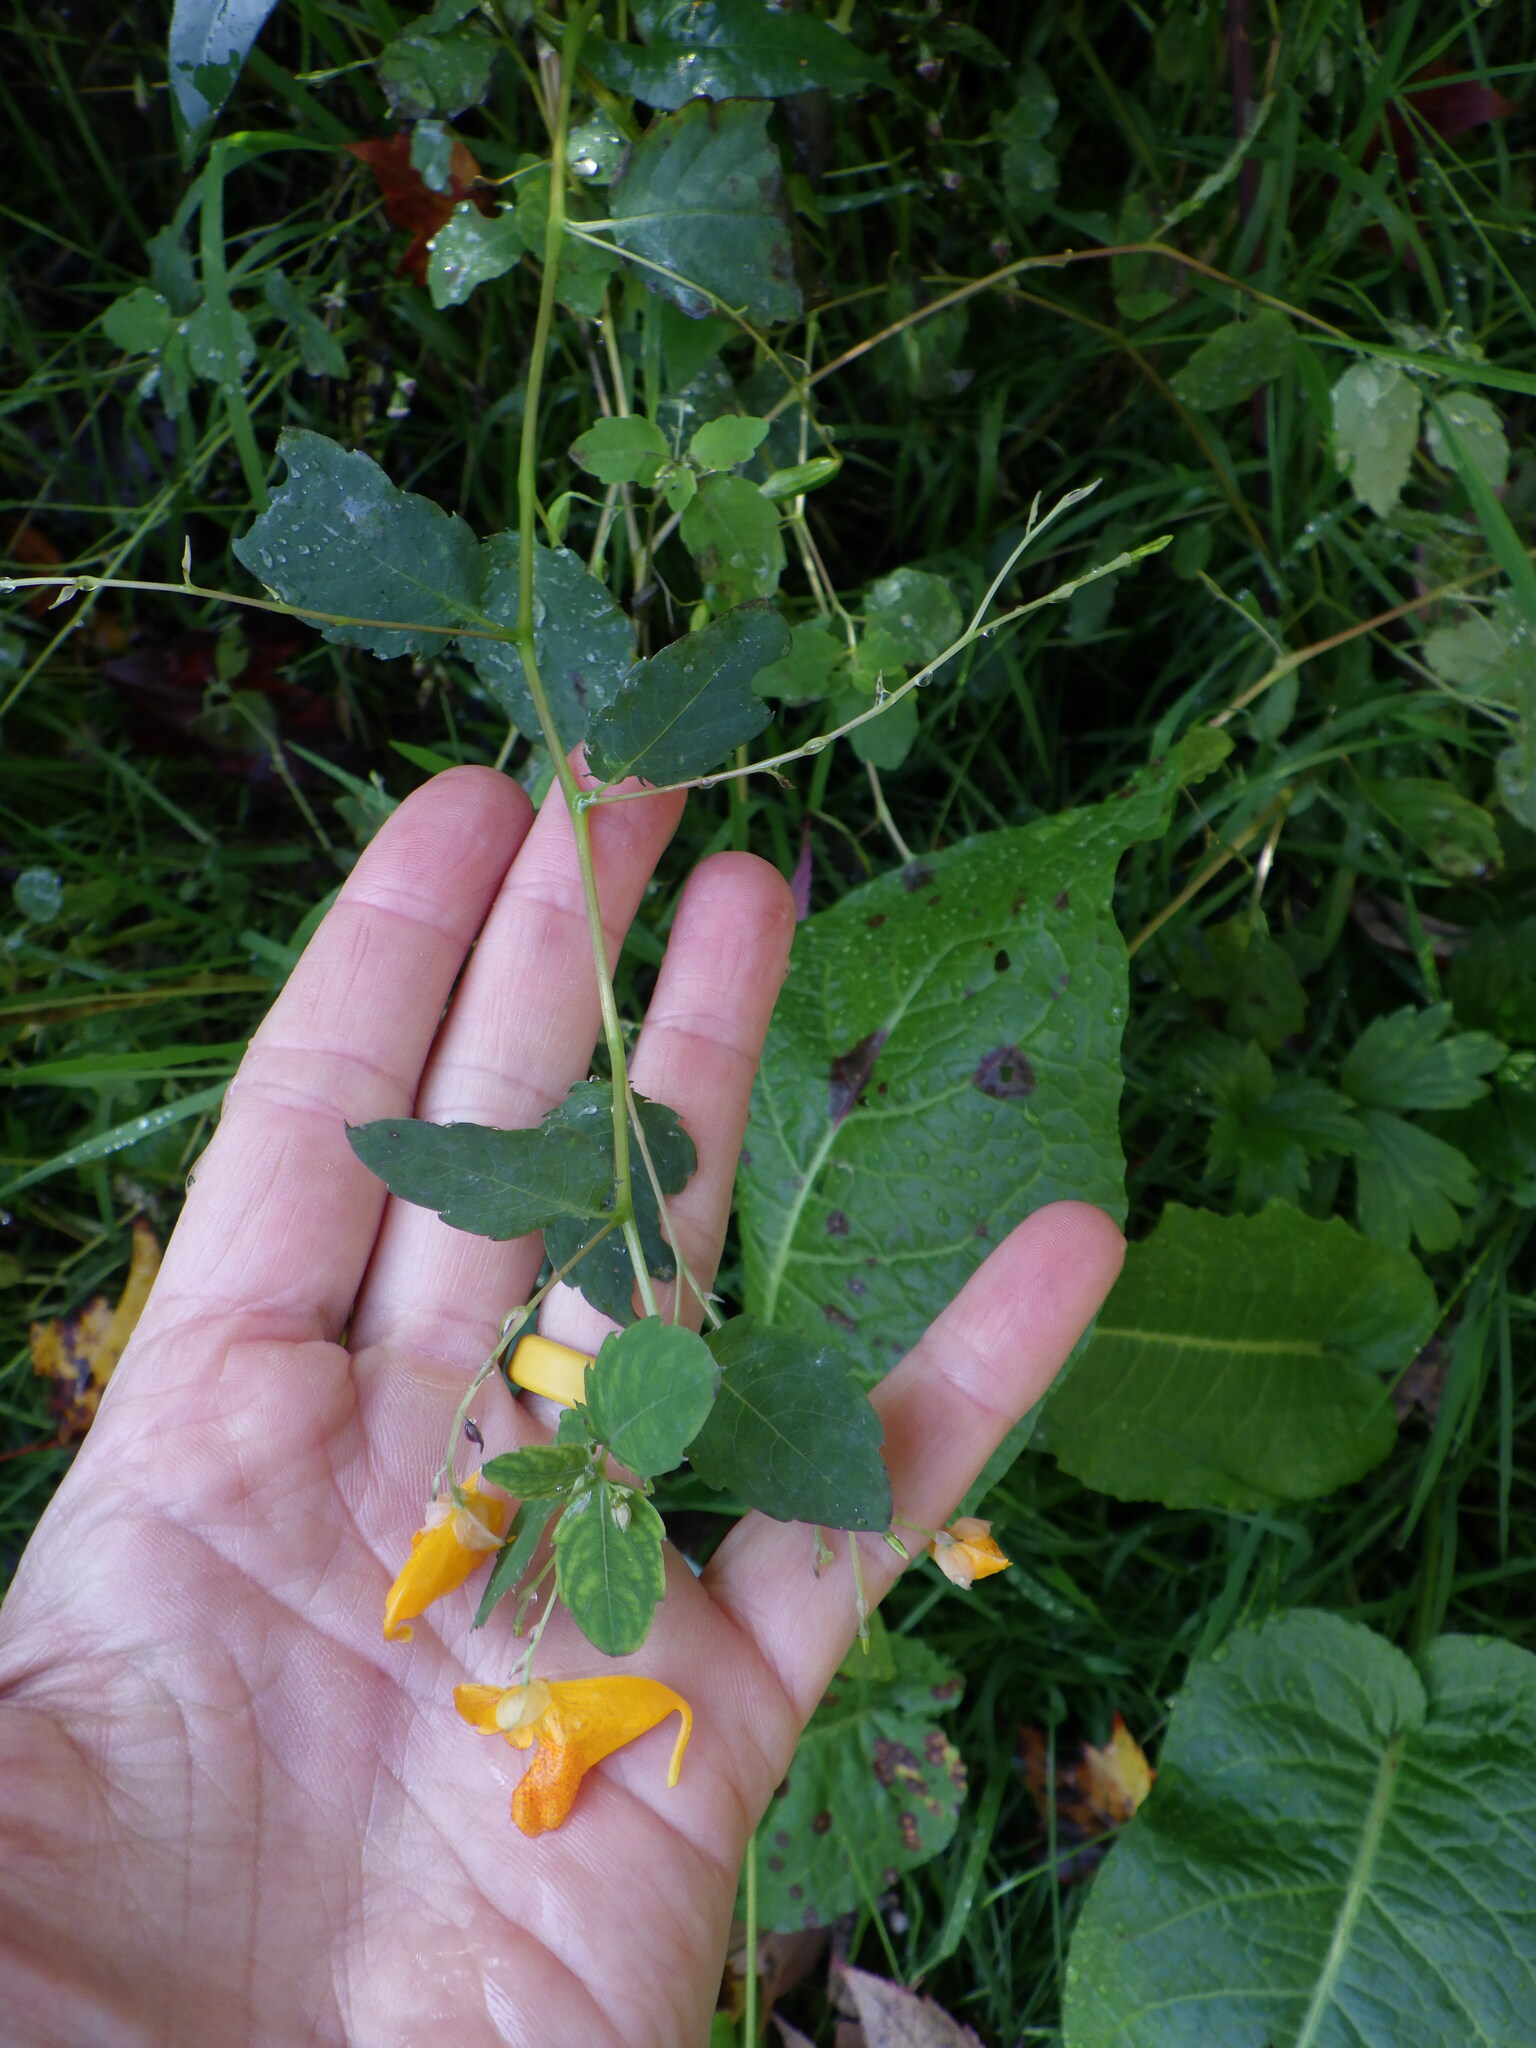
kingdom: Plantae
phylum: Tracheophyta
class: Magnoliopsida
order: Ericales
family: Balsaminaceae
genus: Impatiens
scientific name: Impatiens capensis
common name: Orange balsam
